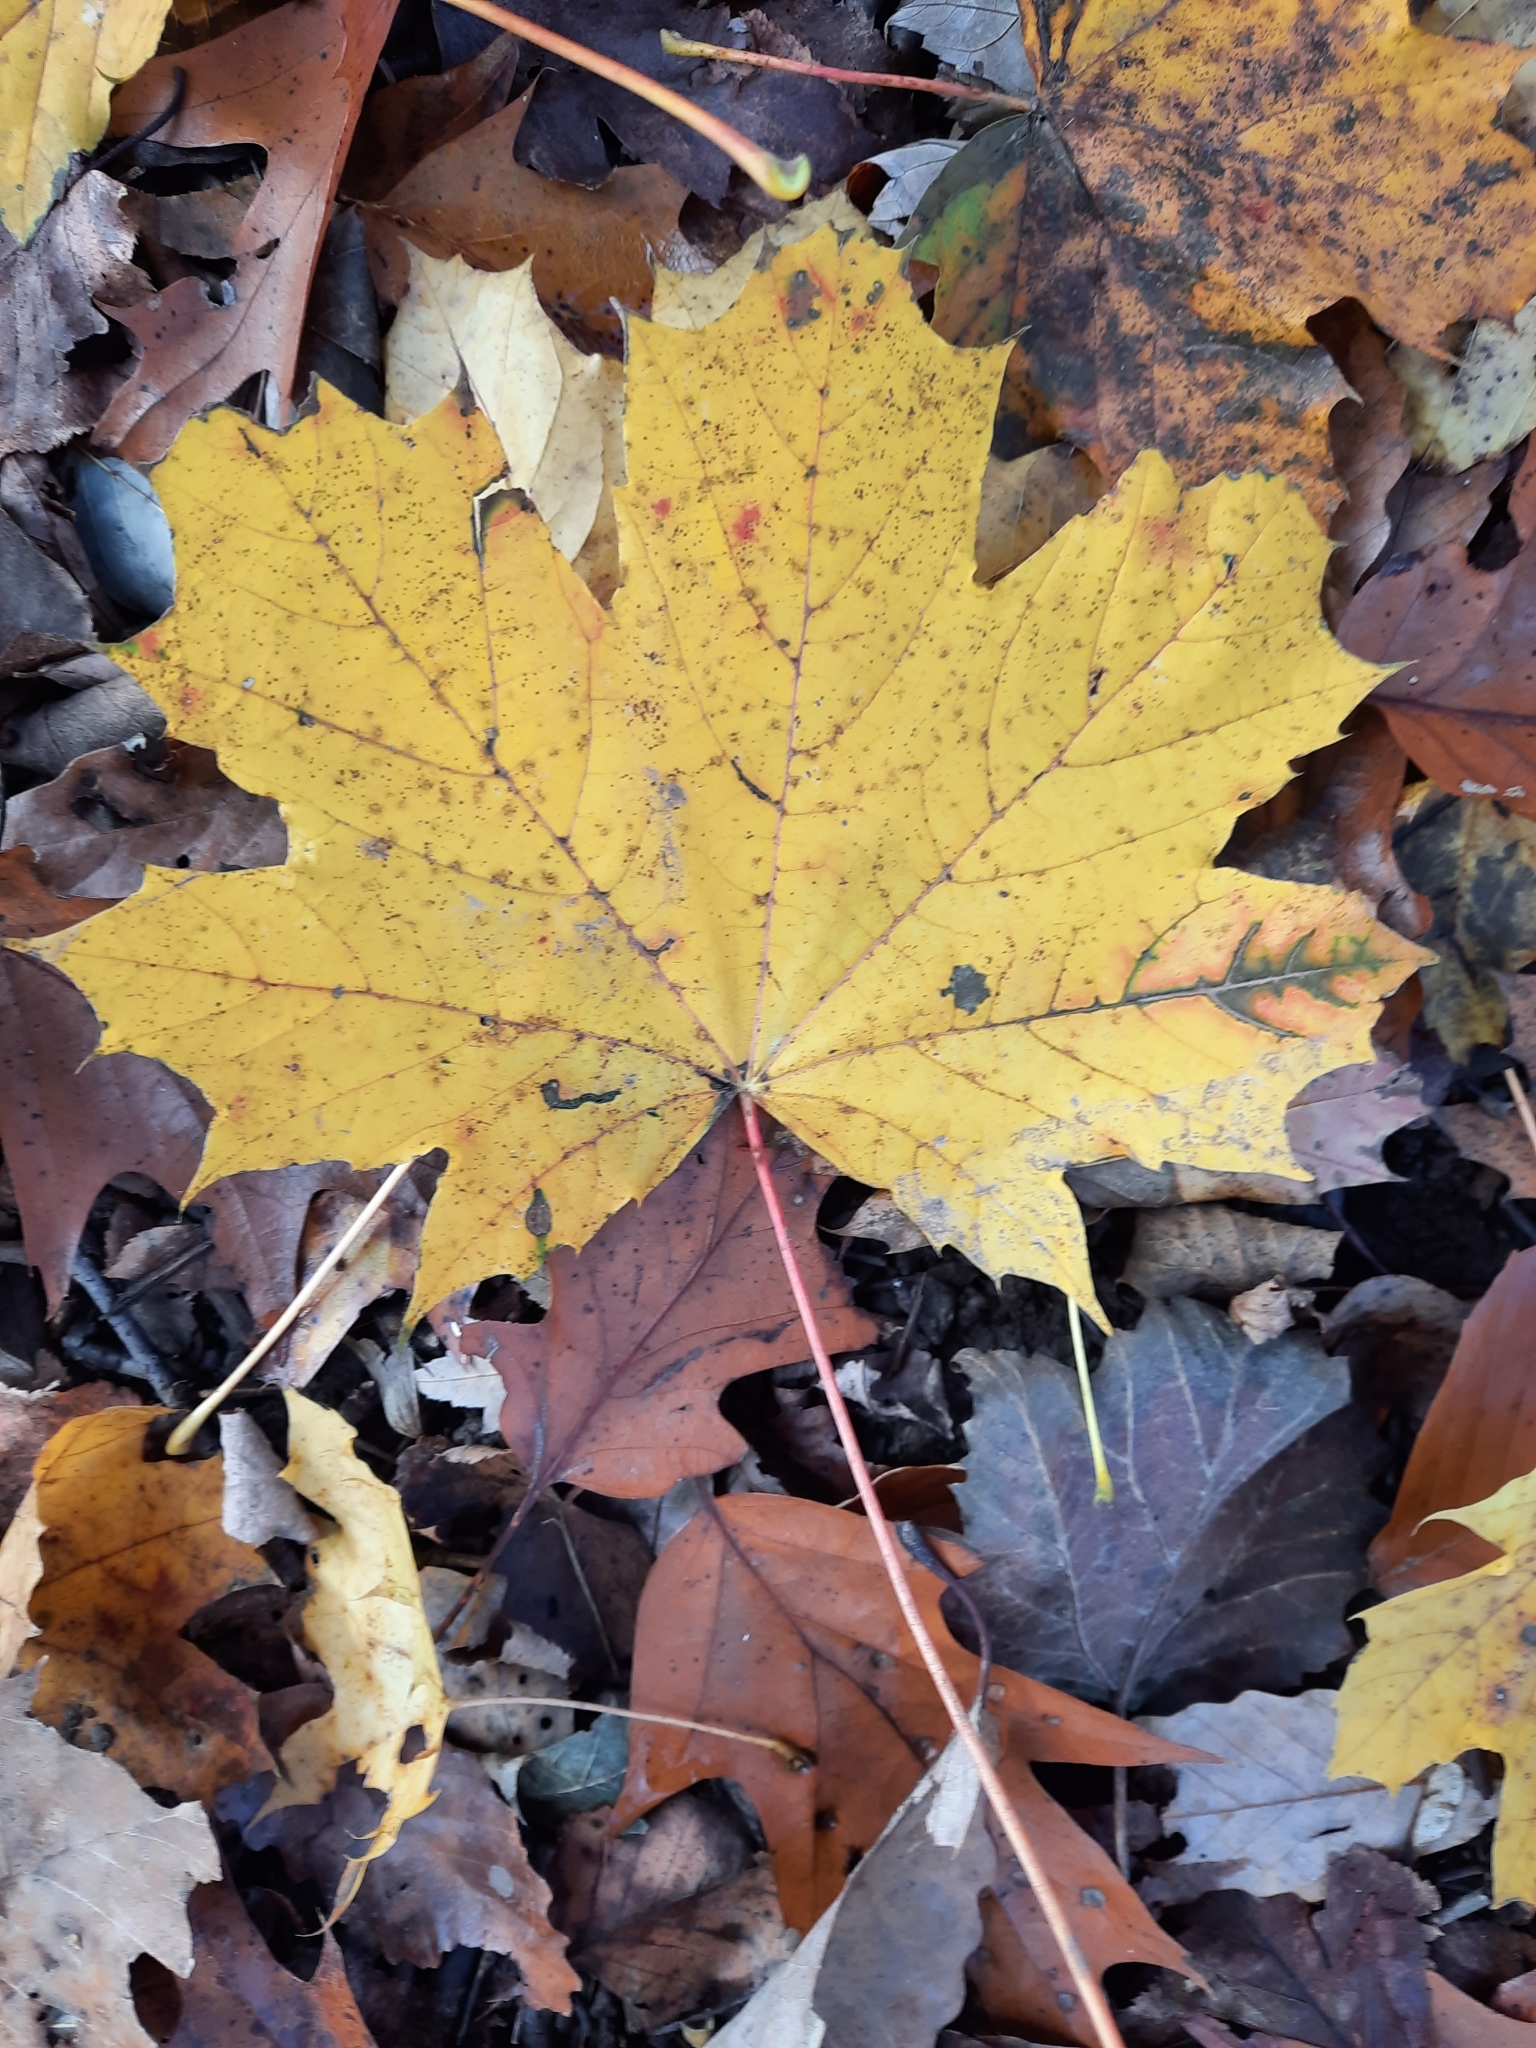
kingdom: Plantae
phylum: Tracheophyta
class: Magnoliopsida
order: Sapindales
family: Sapindaceae
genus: Acer
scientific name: Acer platanoides
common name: Norway maple
